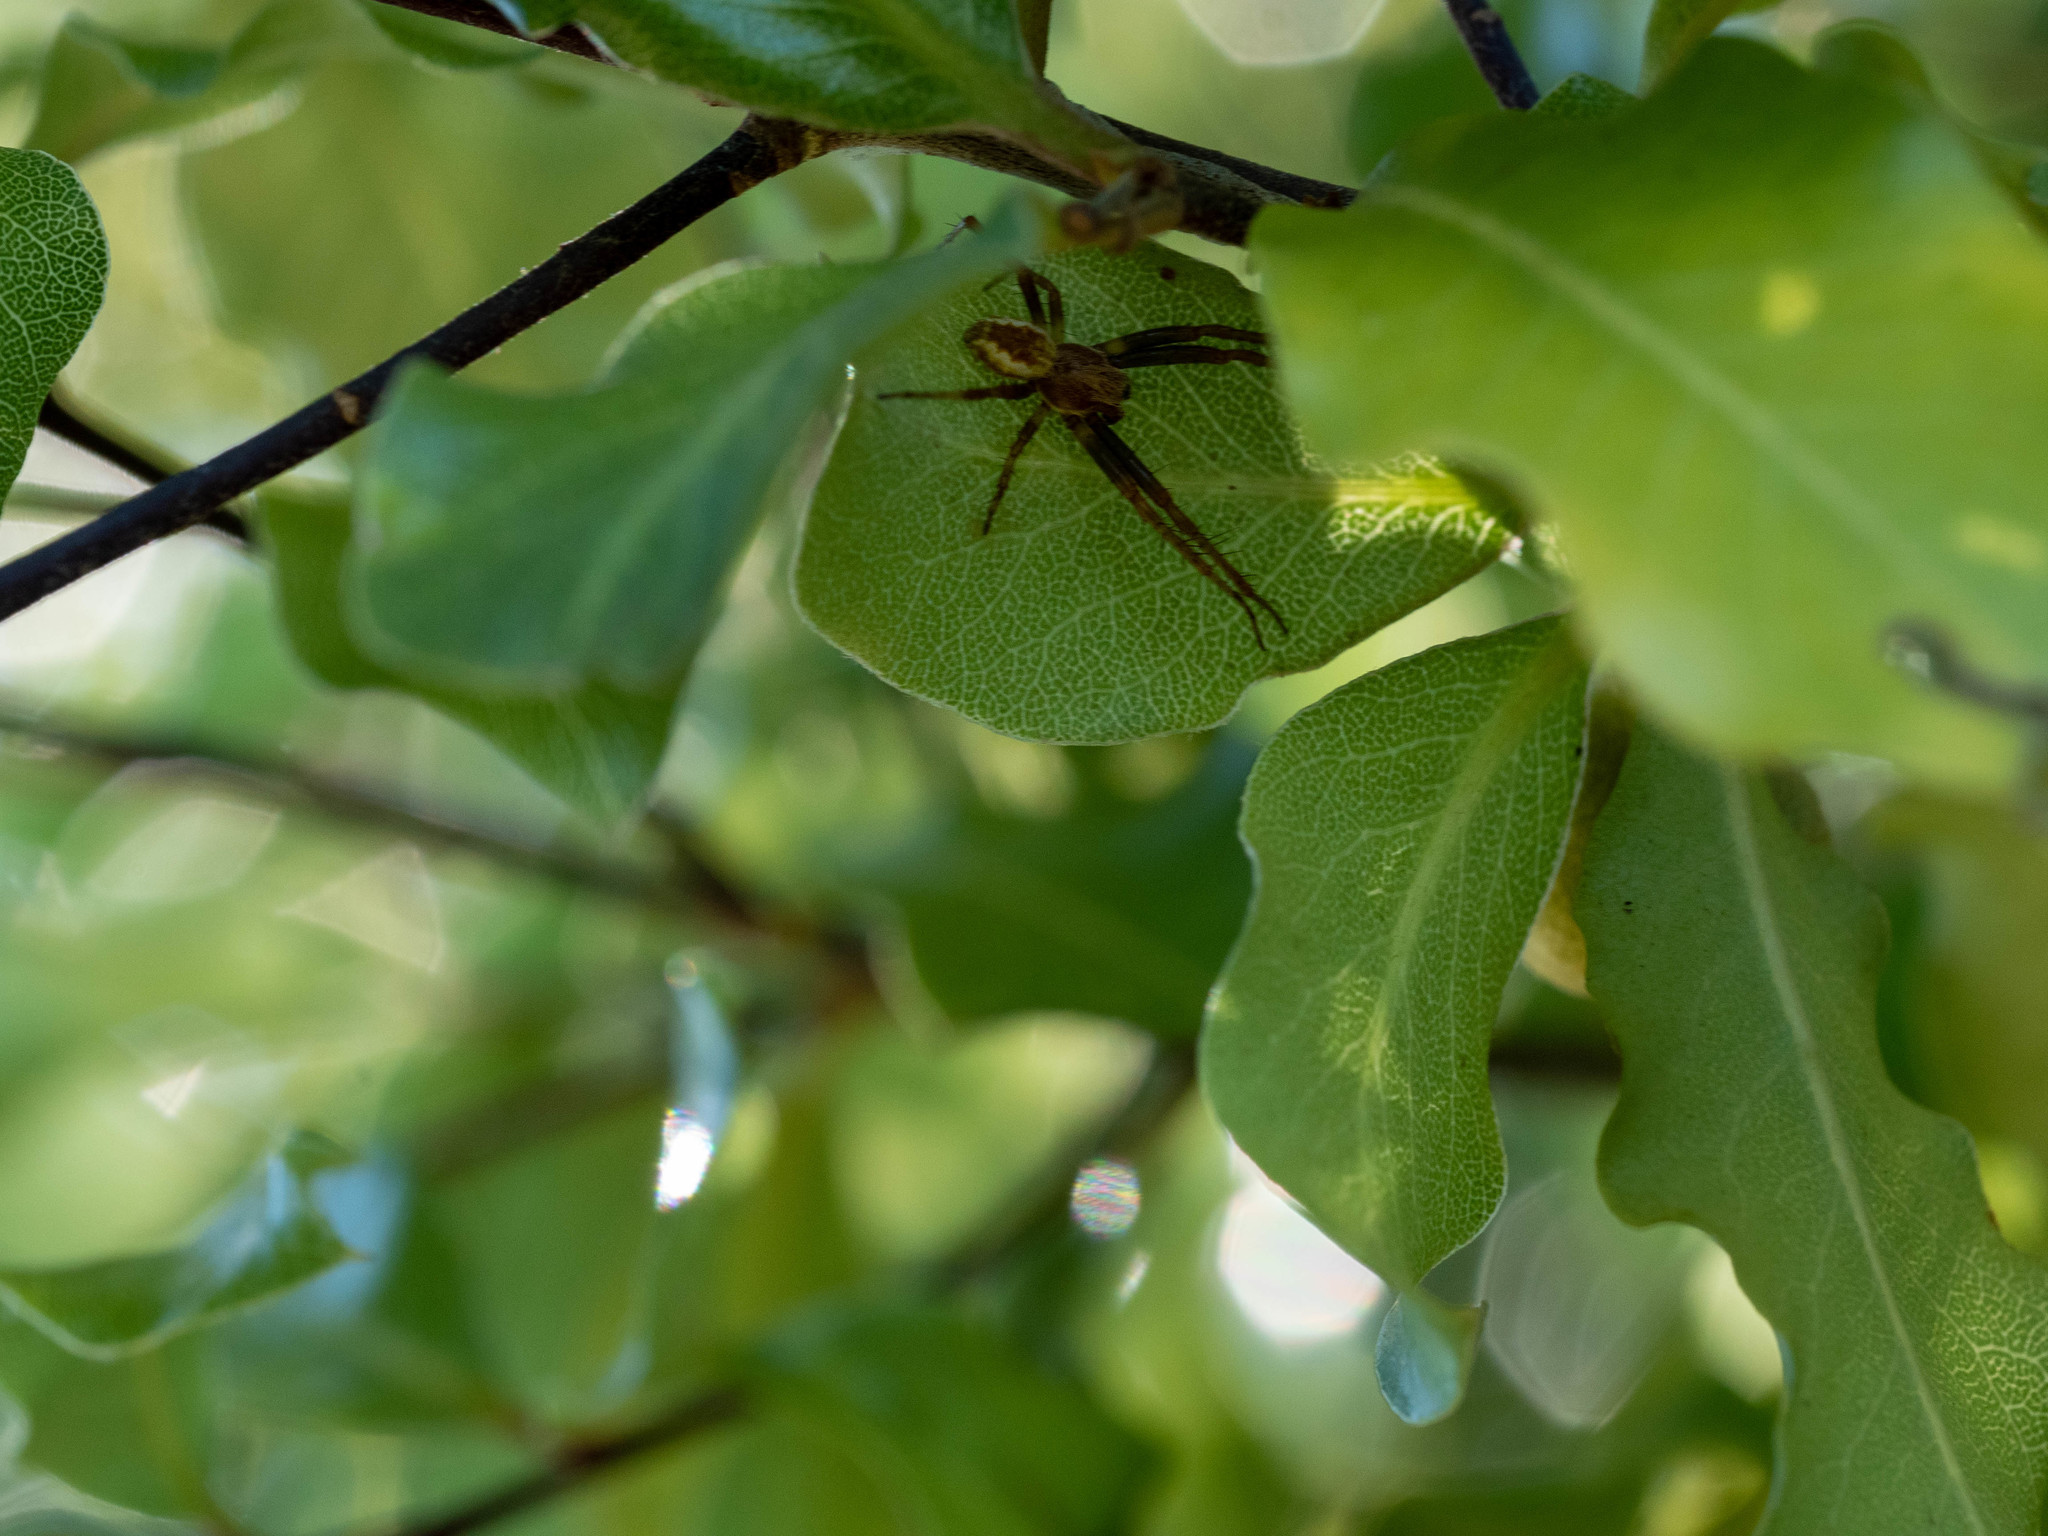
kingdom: Animalia
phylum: Arthropoda
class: Arachnida
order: Araneae
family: Araneidae
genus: Salsa
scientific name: Salsa fuliginata
